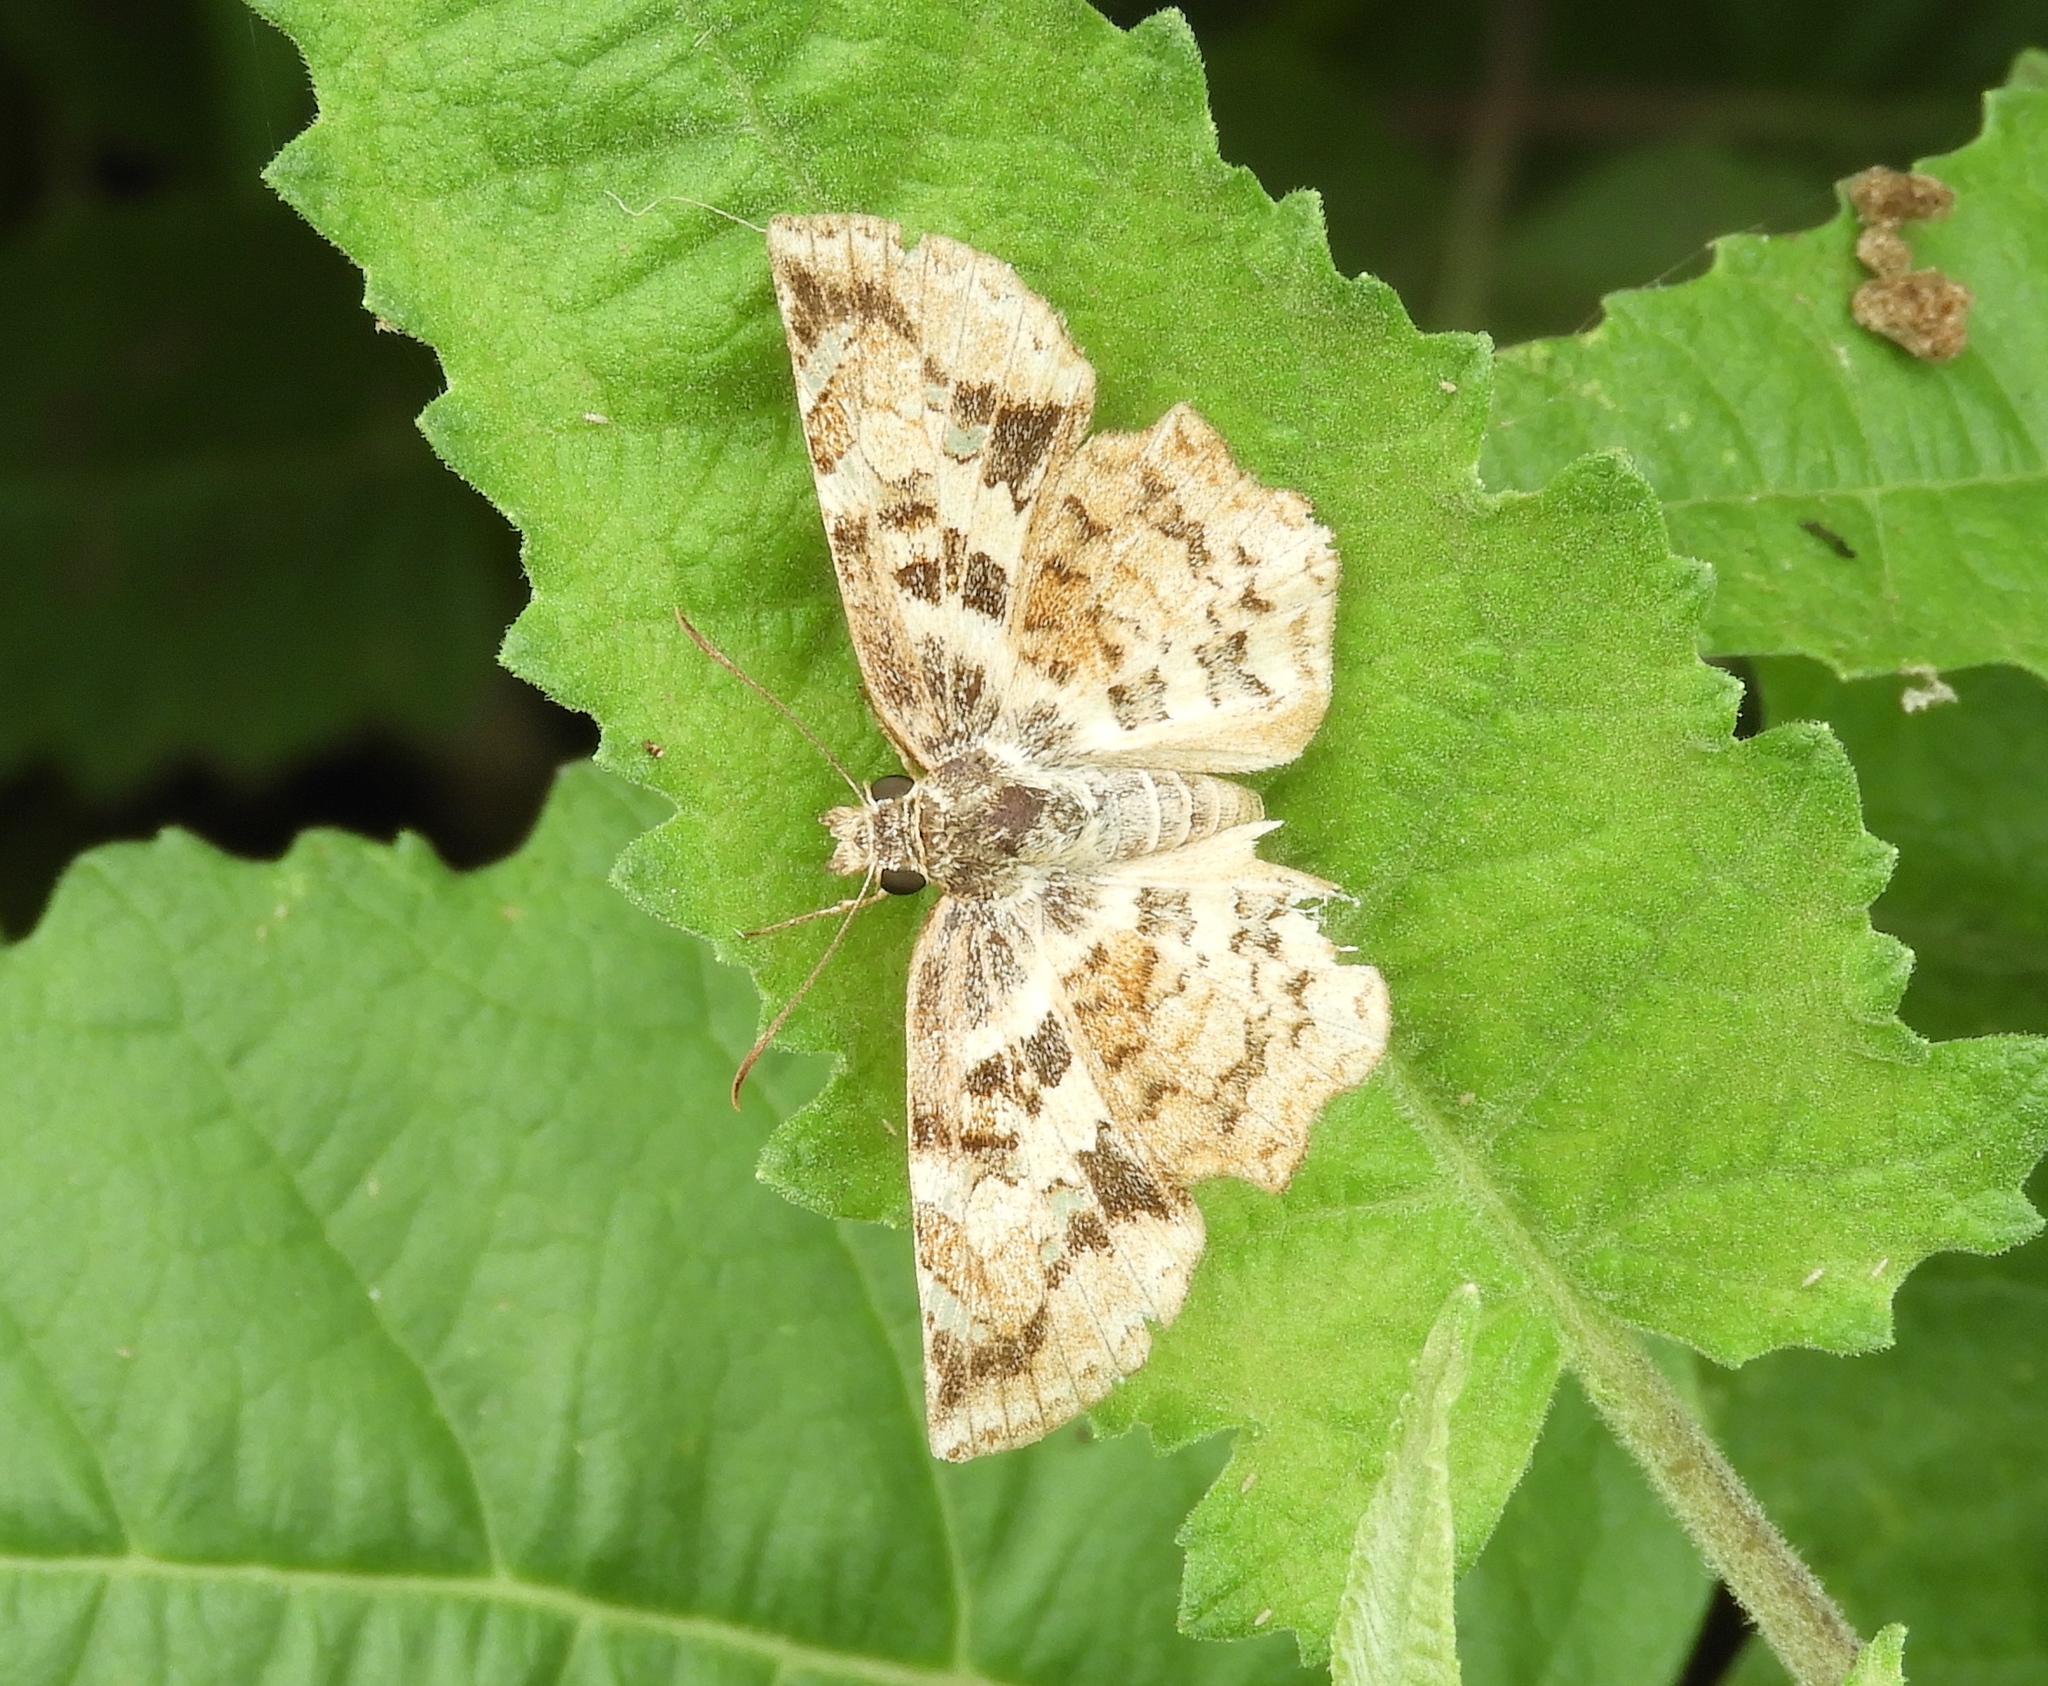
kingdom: Animalia
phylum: Arthropoda
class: Insecta
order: Lepidoptera
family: Hesperiidae
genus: Pyrginae
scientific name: Pyrginae
